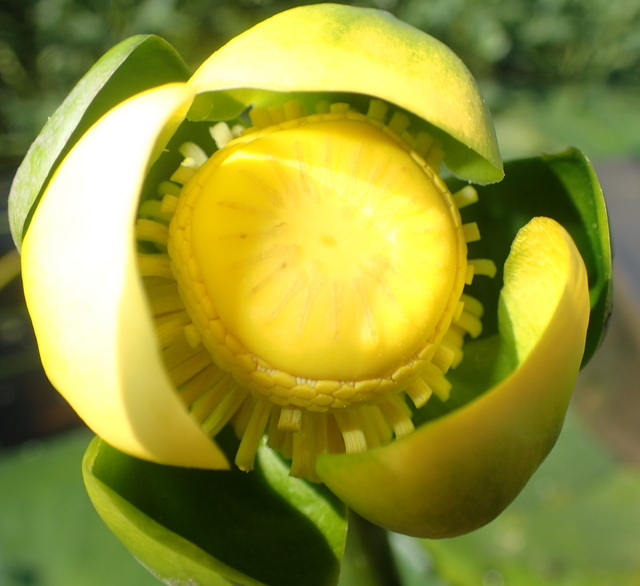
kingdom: Plantae
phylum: Tracheophyta
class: Magnoliopsida
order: Nymphaeales
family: Nymphaeaceae
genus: Nuphar
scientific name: Nuphar advena
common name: Spatter-dock
